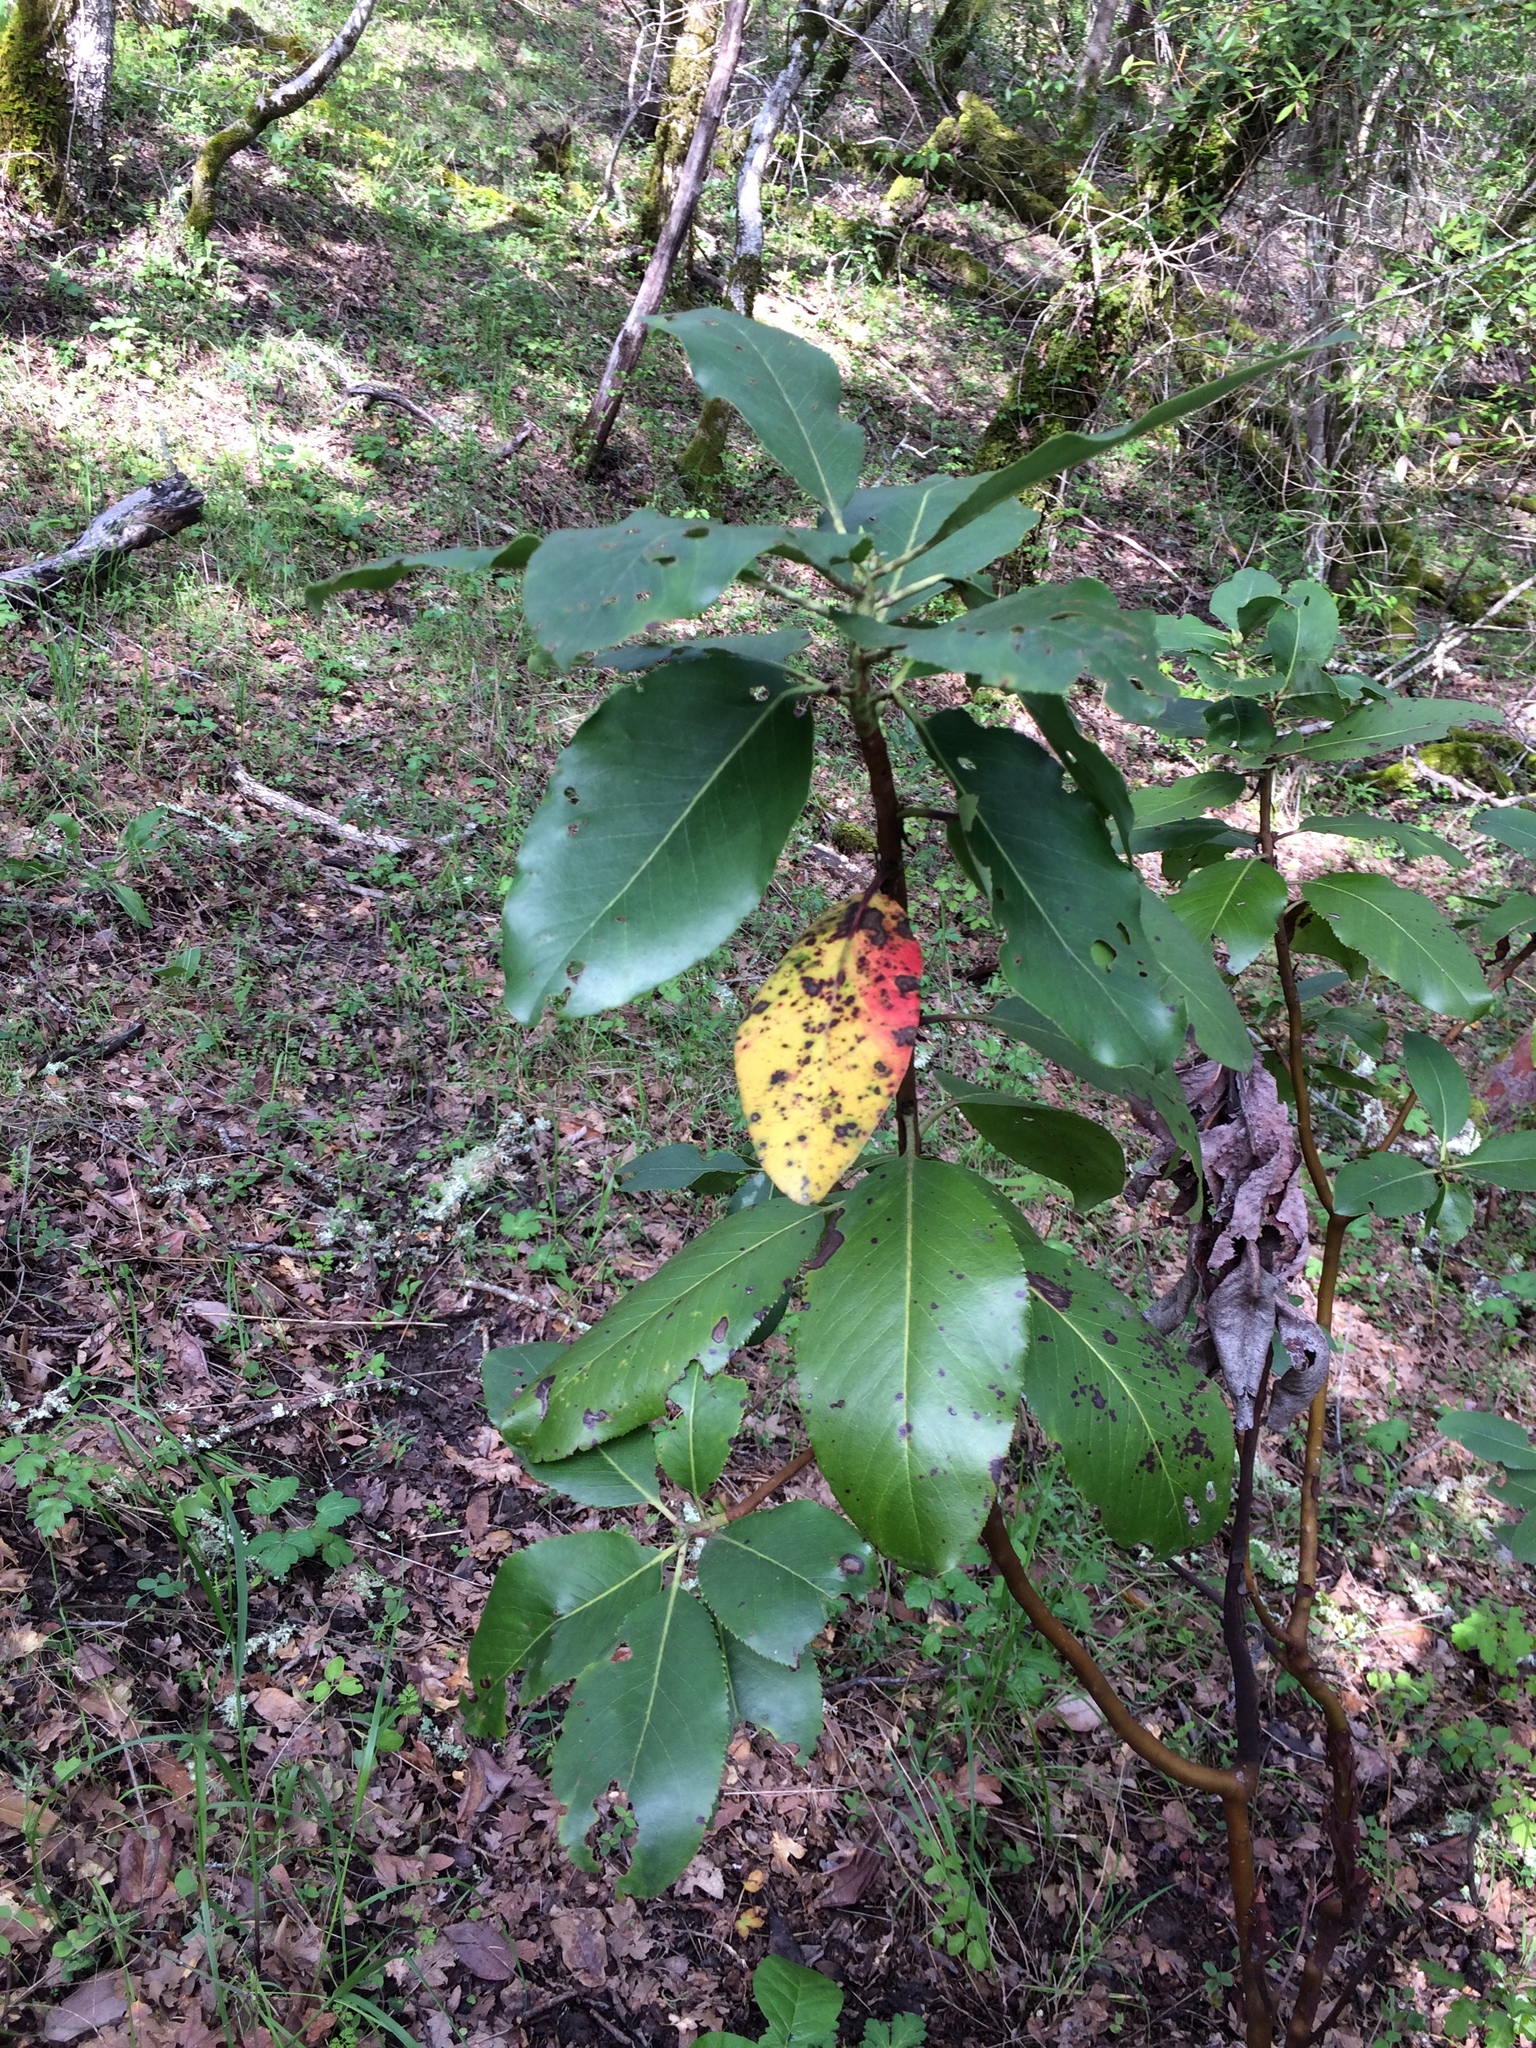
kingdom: Plantae
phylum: Tracheophyta
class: Magnoliopsida
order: Ericales
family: Ericaceae
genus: Arbutus
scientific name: Arbutus menziesii
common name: Pacific madrone
